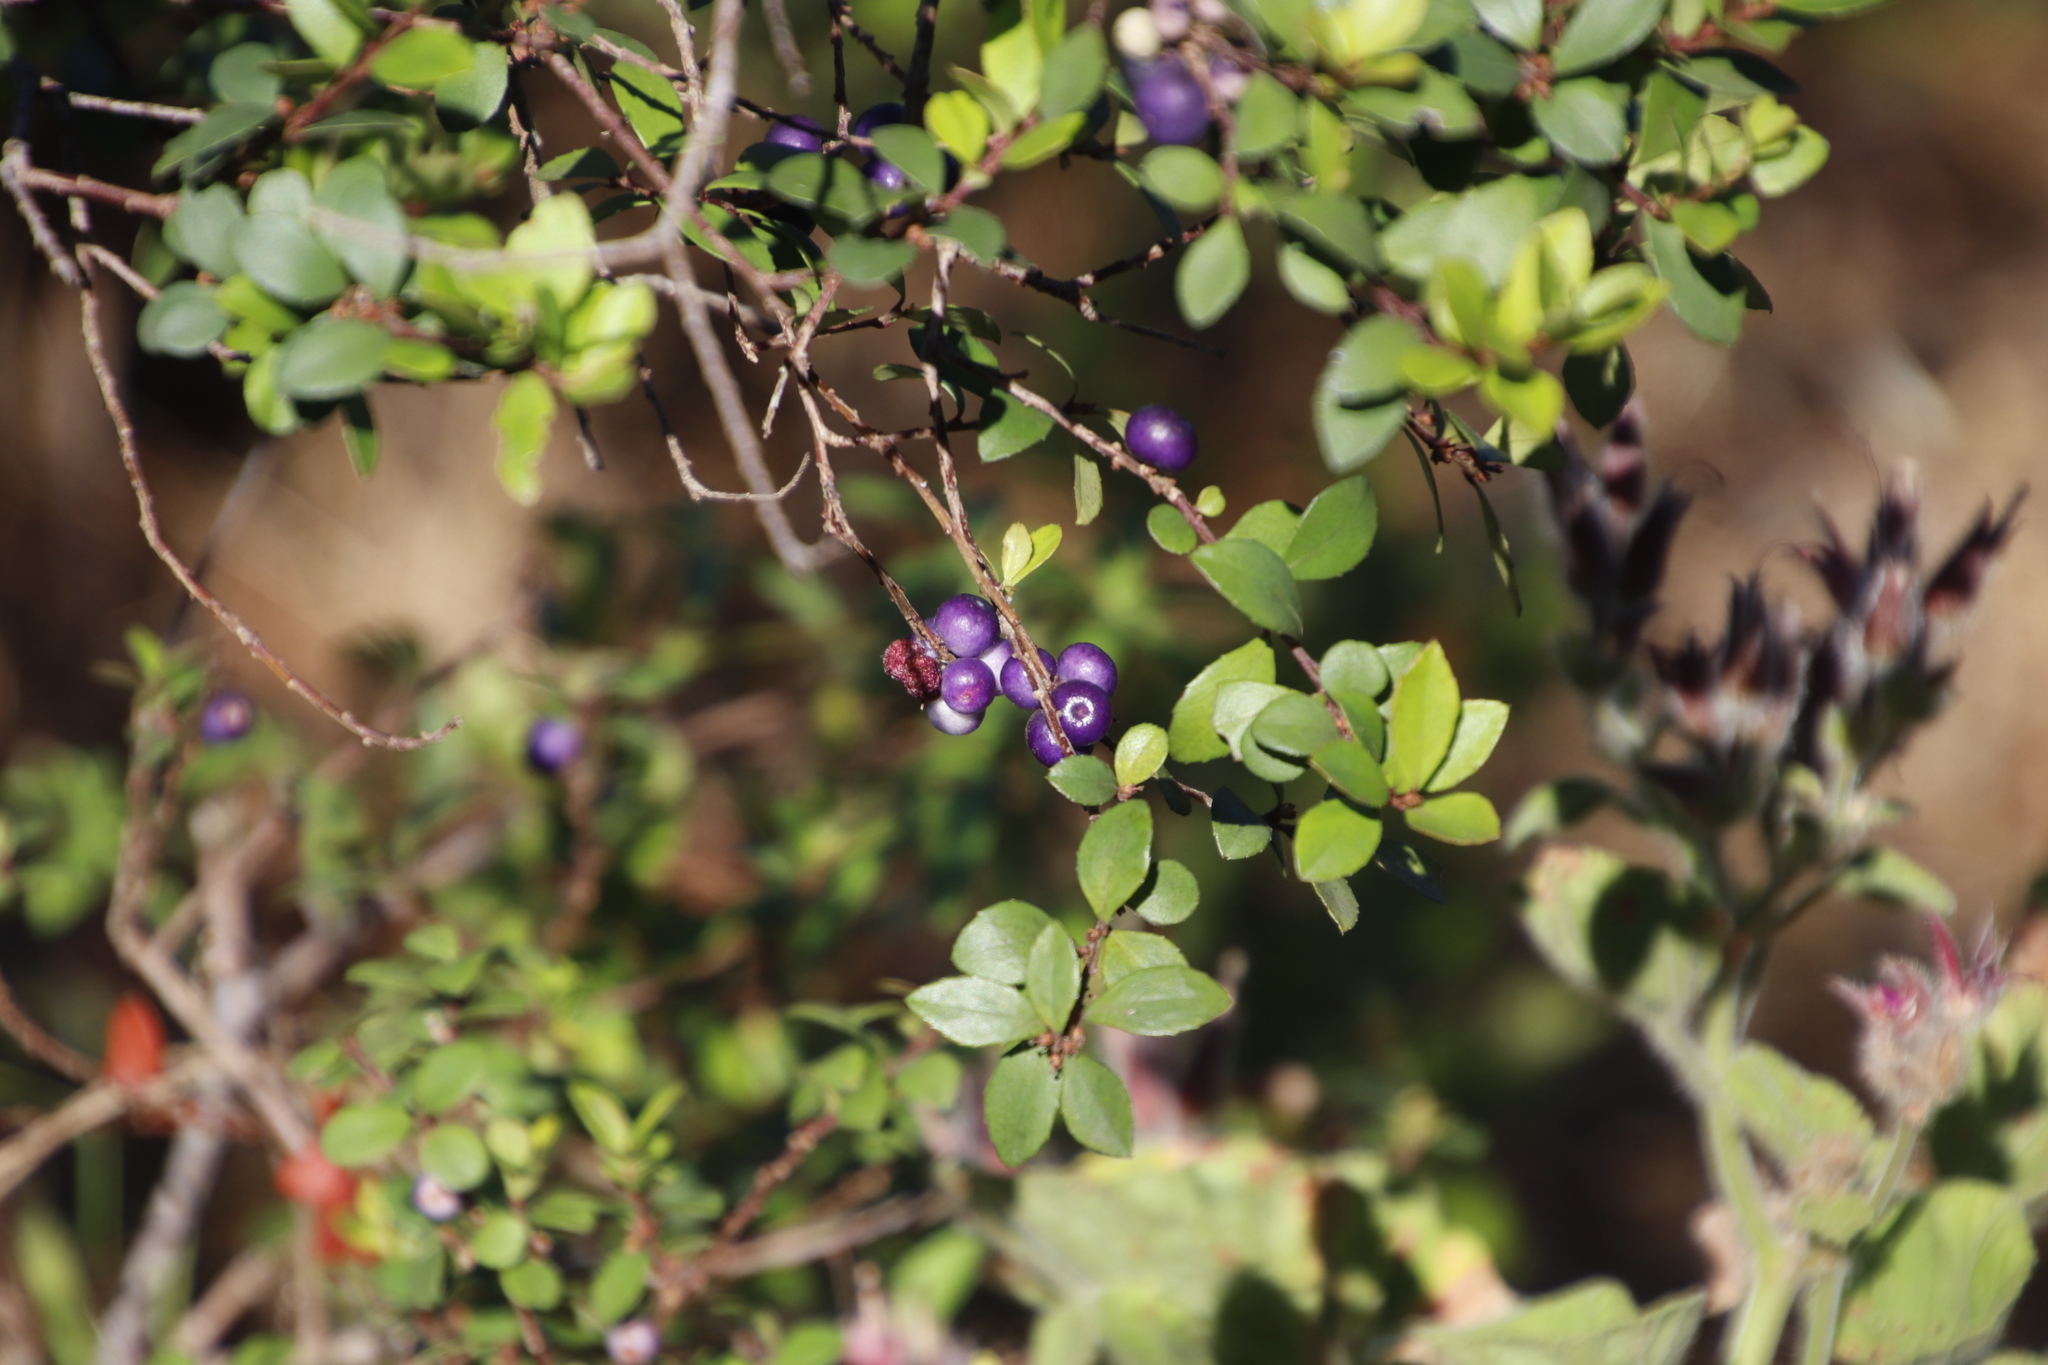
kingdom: Plantae
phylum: Tracheophyta
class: Magnoliopsida
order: Ericales
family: Primulaceae
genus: Myrsine
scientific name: Myrsine africana
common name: African-boxwood
